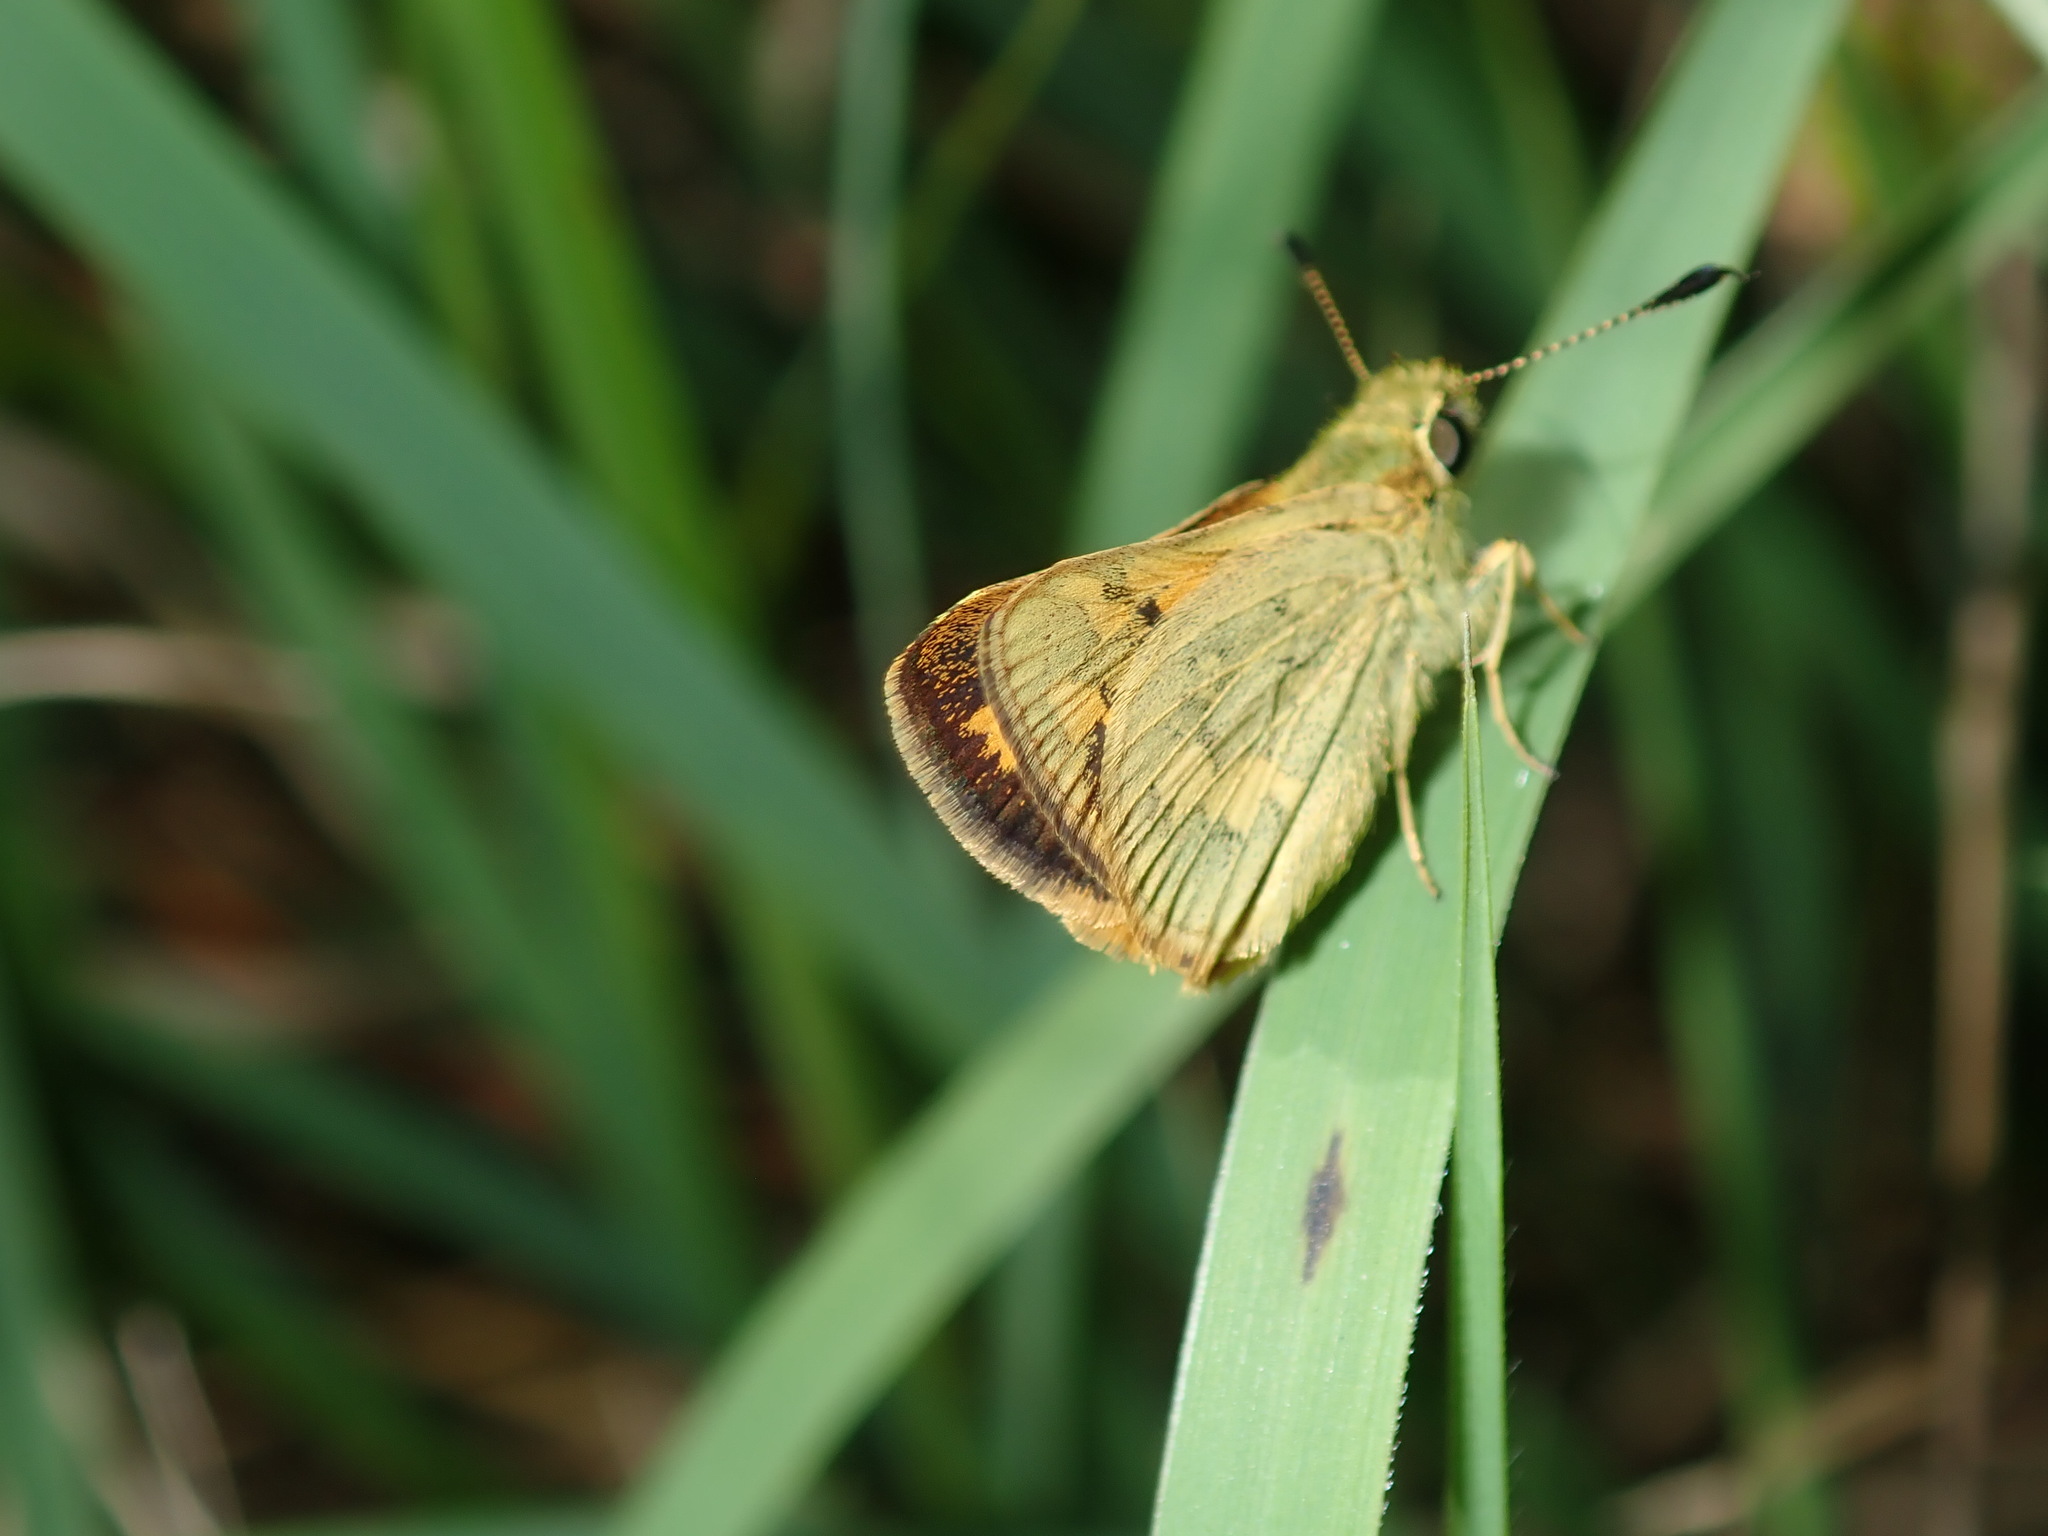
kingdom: Animalia
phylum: Arthropoda
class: Insecta
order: Lepidoptera
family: Hesperiidae
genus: Ocybadistes
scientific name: Ocybadistes walkeri
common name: Yellow-banded dart
